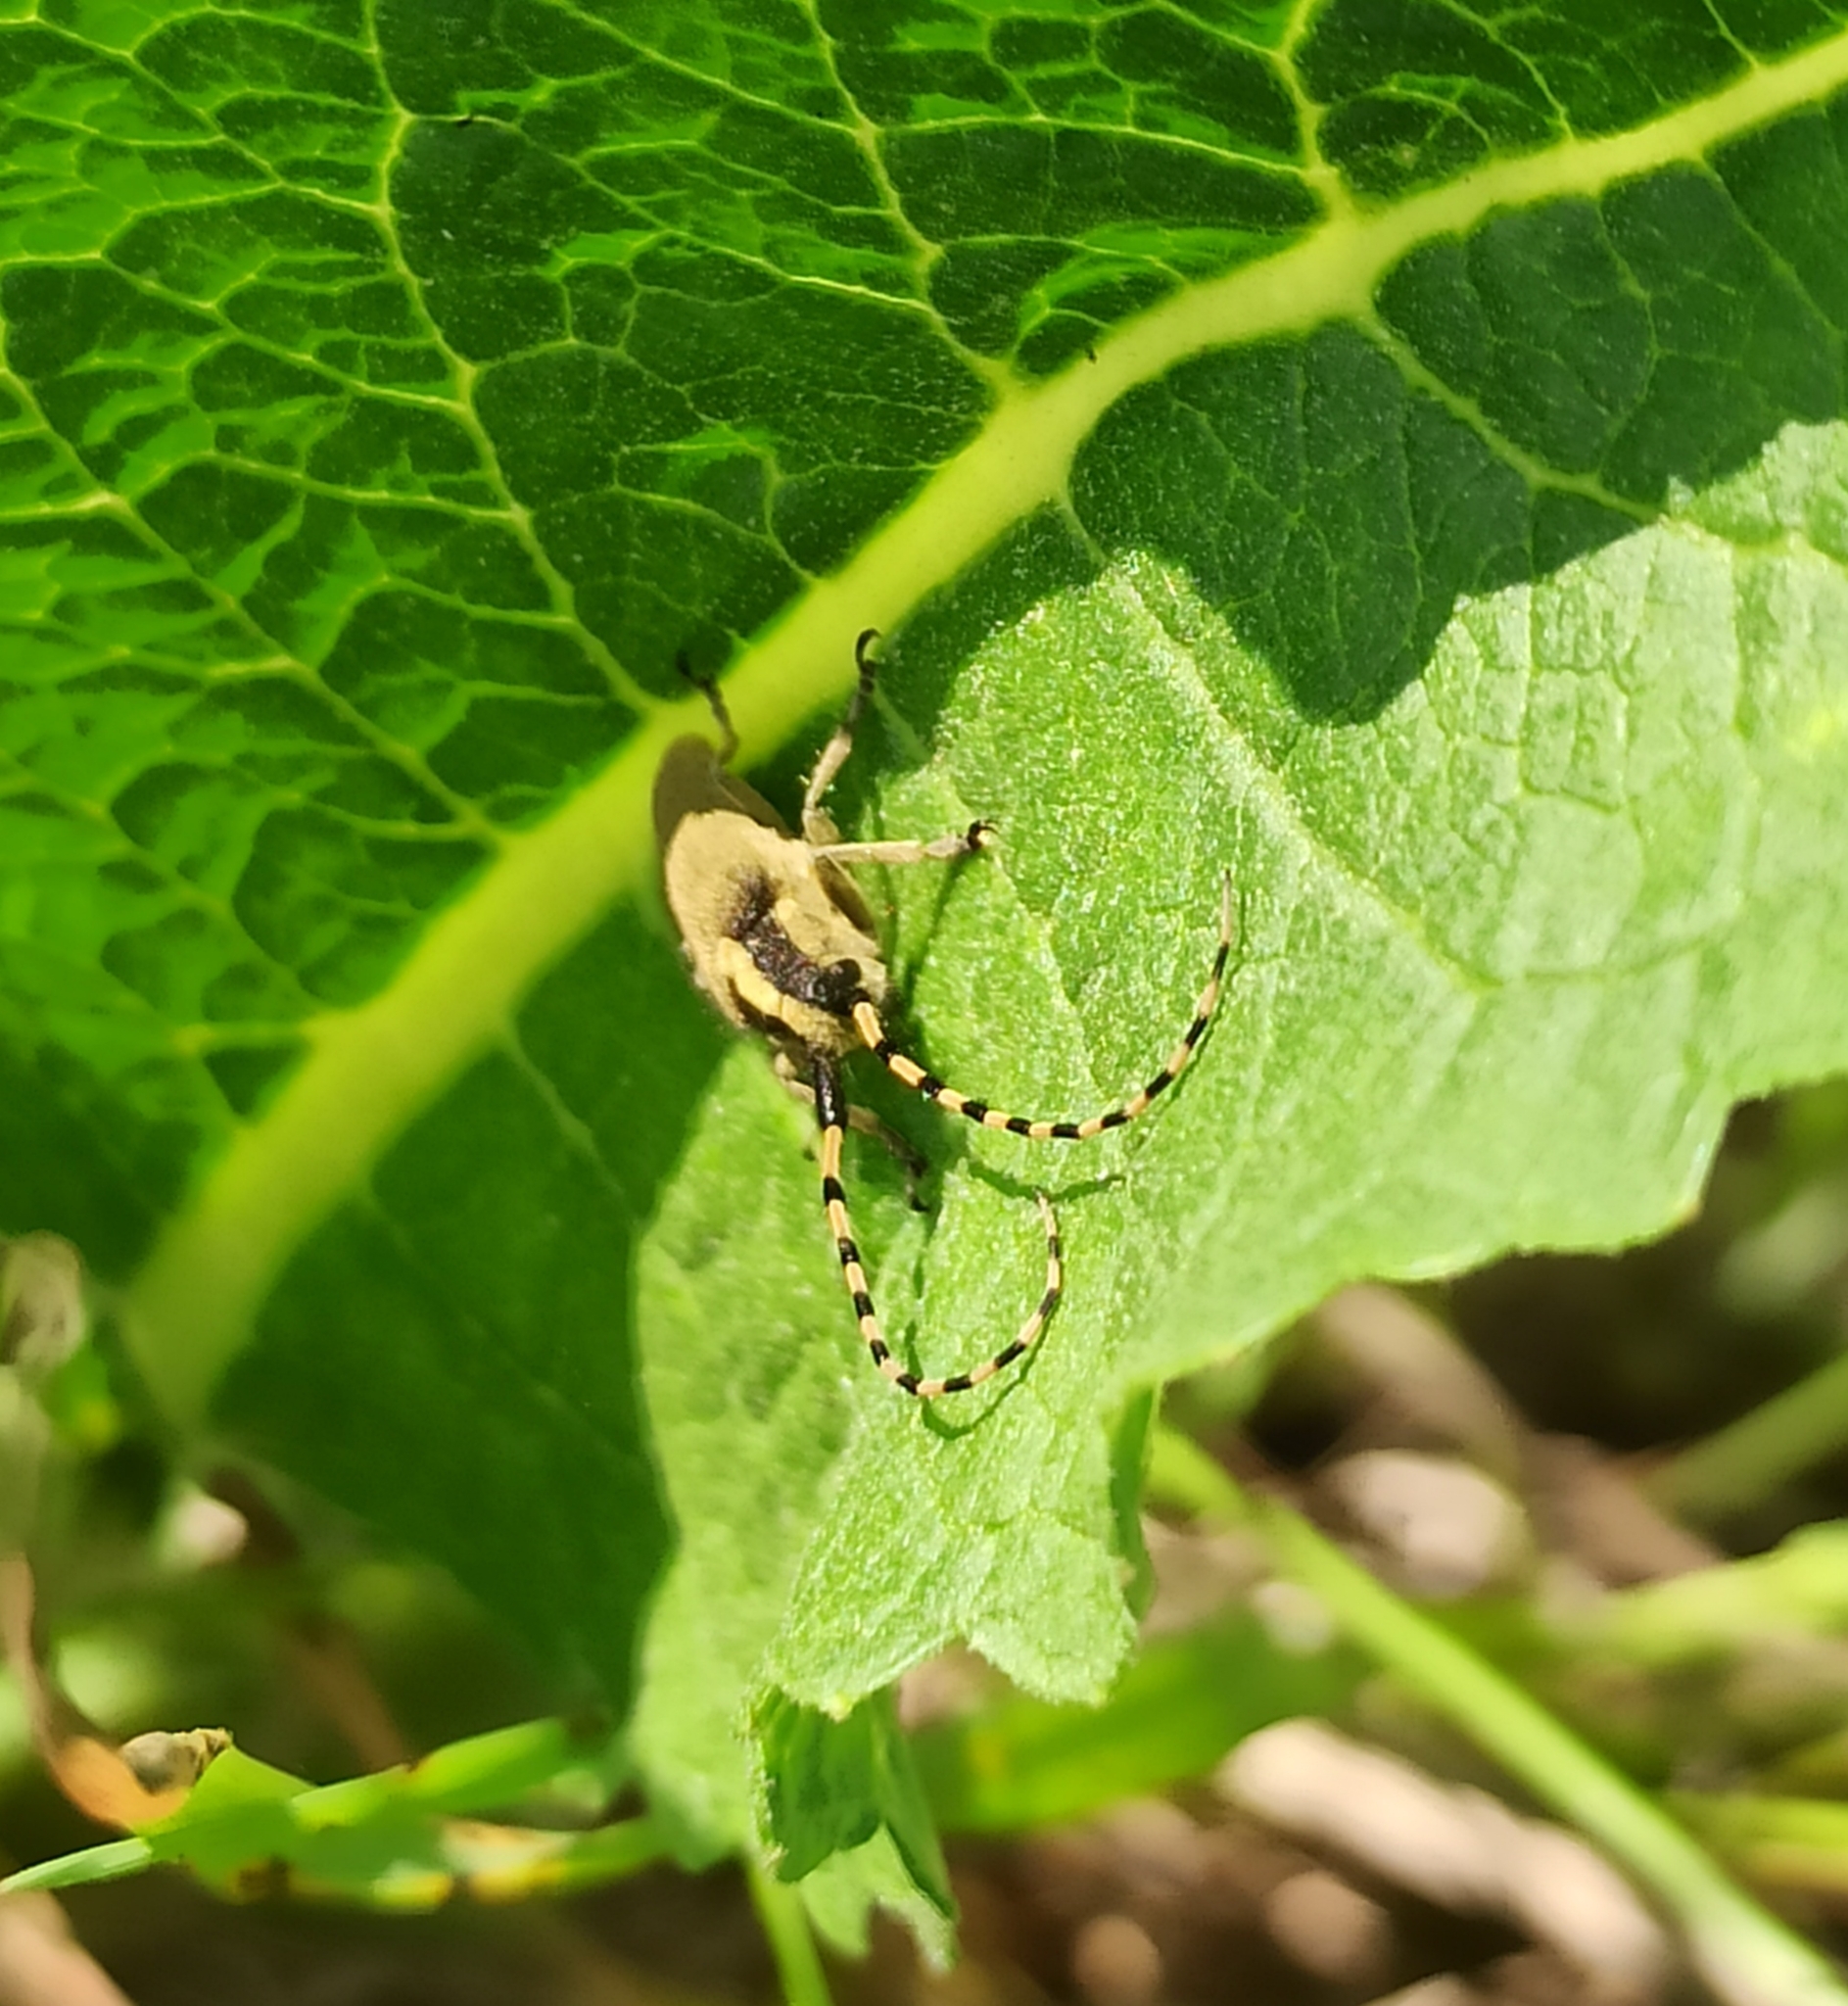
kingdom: Animalia
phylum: Arthropoda
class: Insecta
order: Coleoptera
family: Cerambycidae
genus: Agapanthia
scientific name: Agapanthia kirbyi
